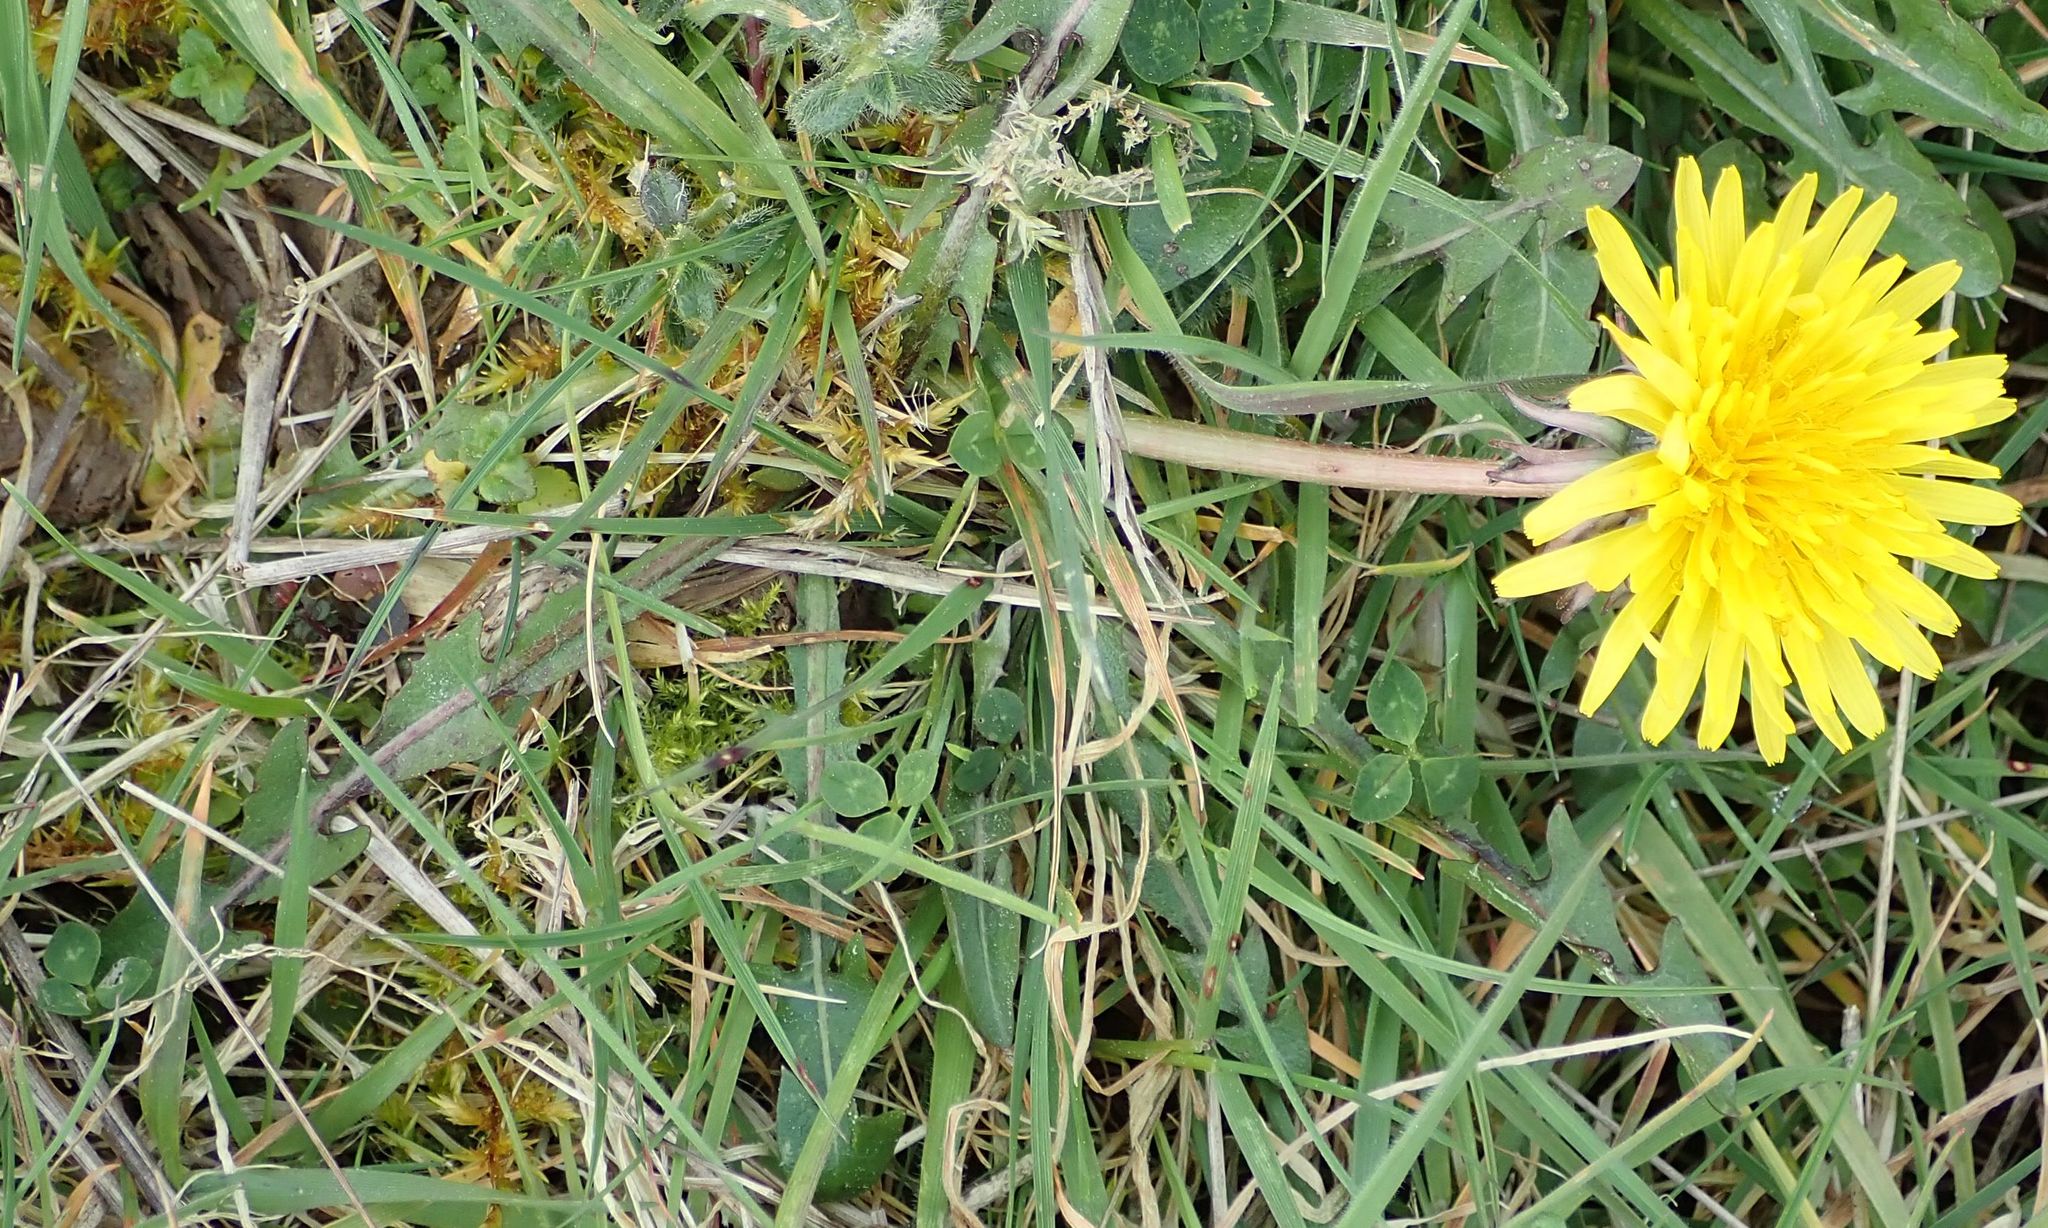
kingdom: Plantae
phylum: Tracheophyta
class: Magnoliopsida
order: Asterales
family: Asteraceae
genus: Taraxacum
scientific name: Taraxacum officinale
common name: Common dandelion
